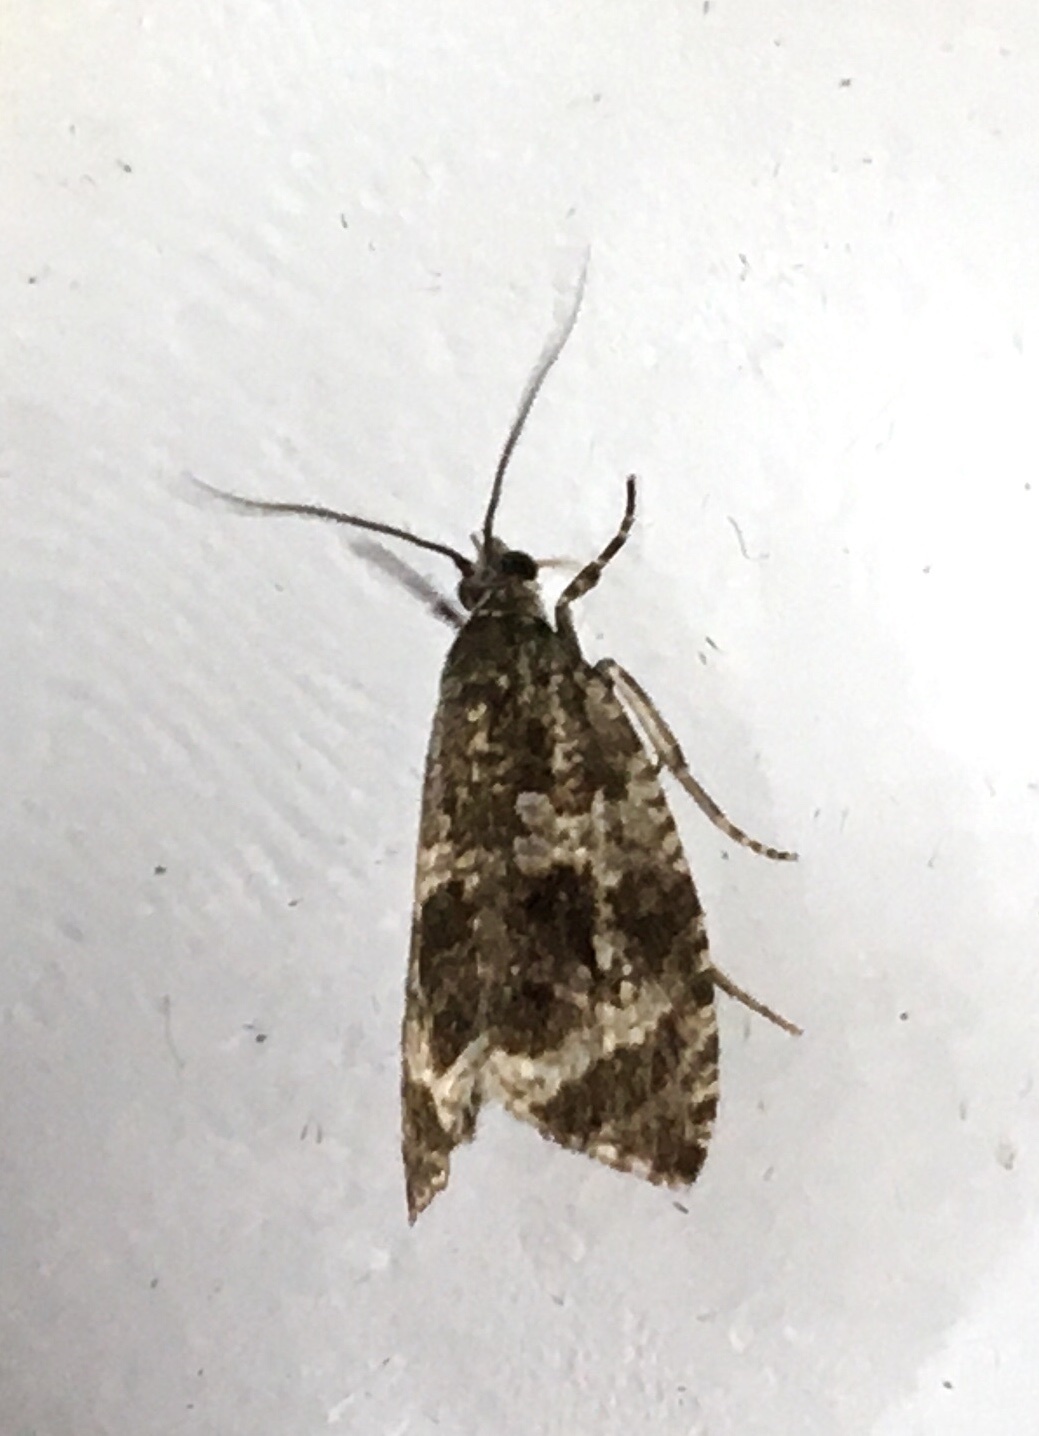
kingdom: Animalia
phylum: Arthropoda
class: Insecta
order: Lepidoptera
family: Tortricidae
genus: Syricoris
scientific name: Syricoris lacunana
